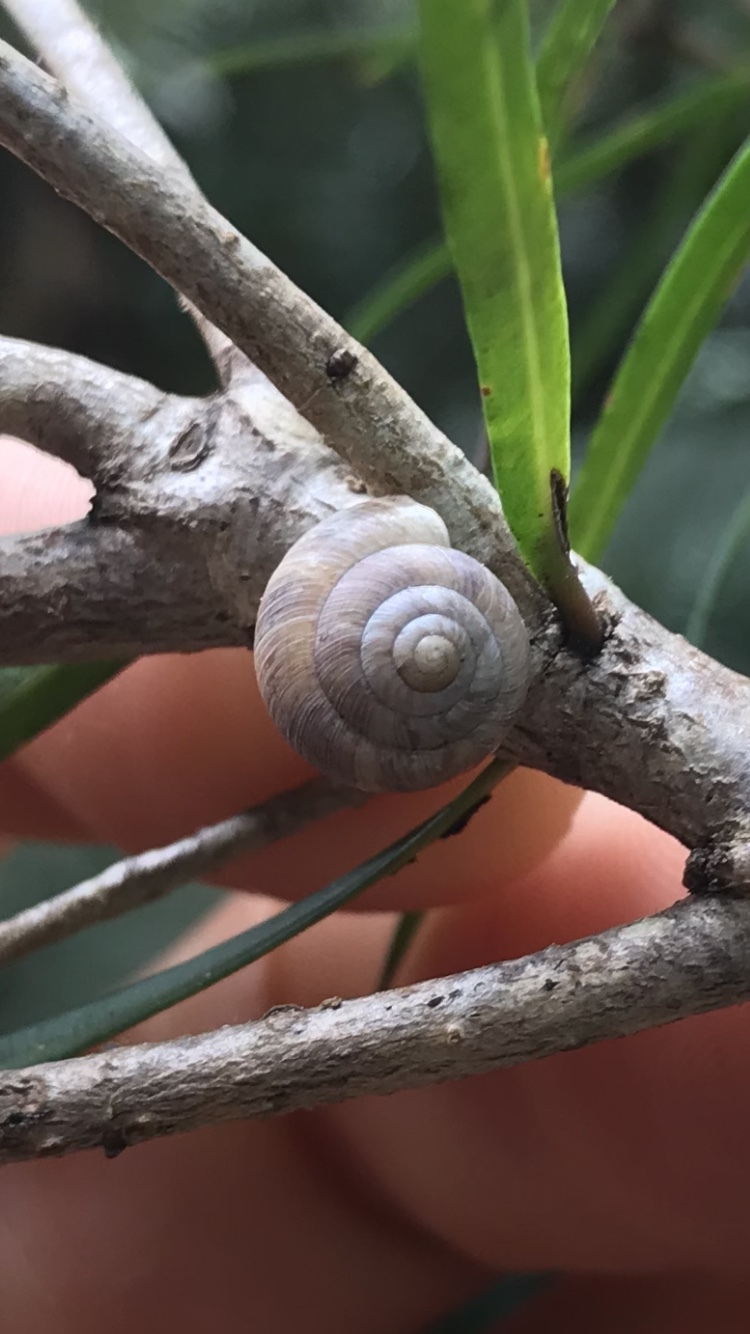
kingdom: Animalia
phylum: Mollusca
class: Gastropoda
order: Stylommatophora
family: Charopidae
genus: Serpho
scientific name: Serpho
